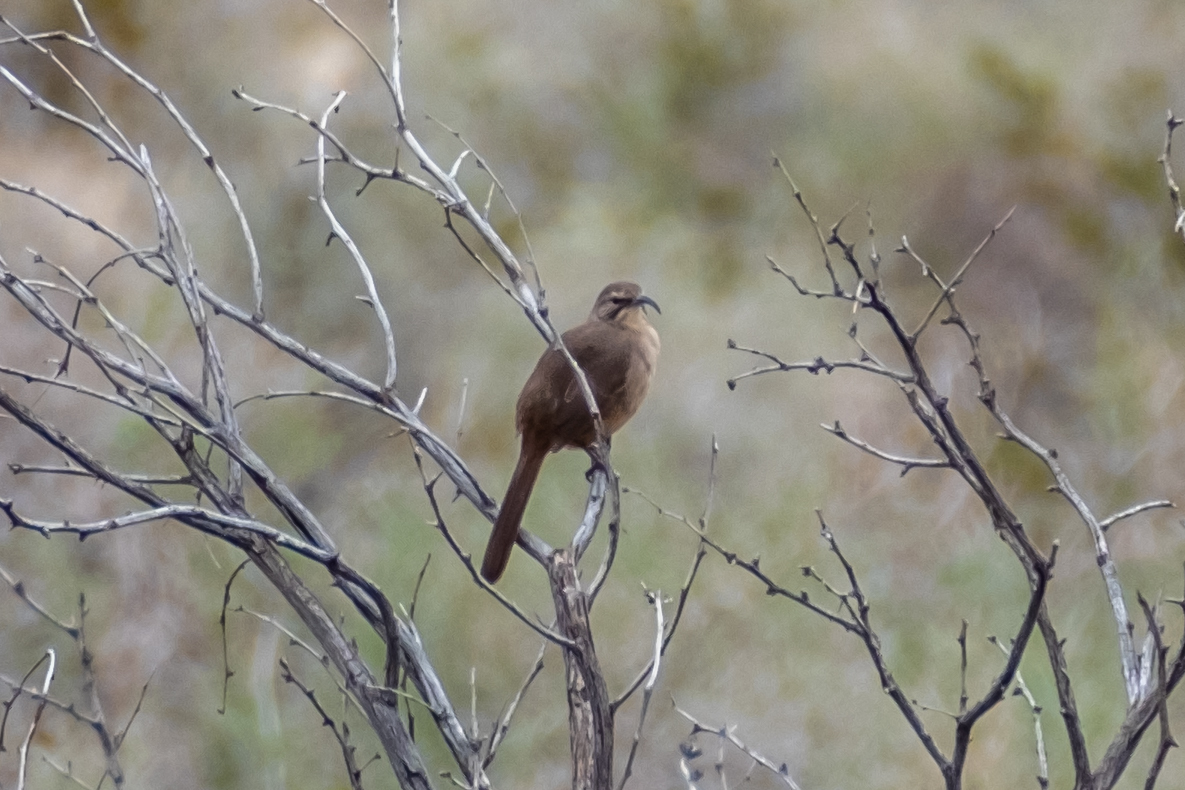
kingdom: Animalia
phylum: Chordata
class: Aves
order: Passeriformes
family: Mimidae
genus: Toxostoma
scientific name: Toxostoma redivivum
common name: California thrasher
